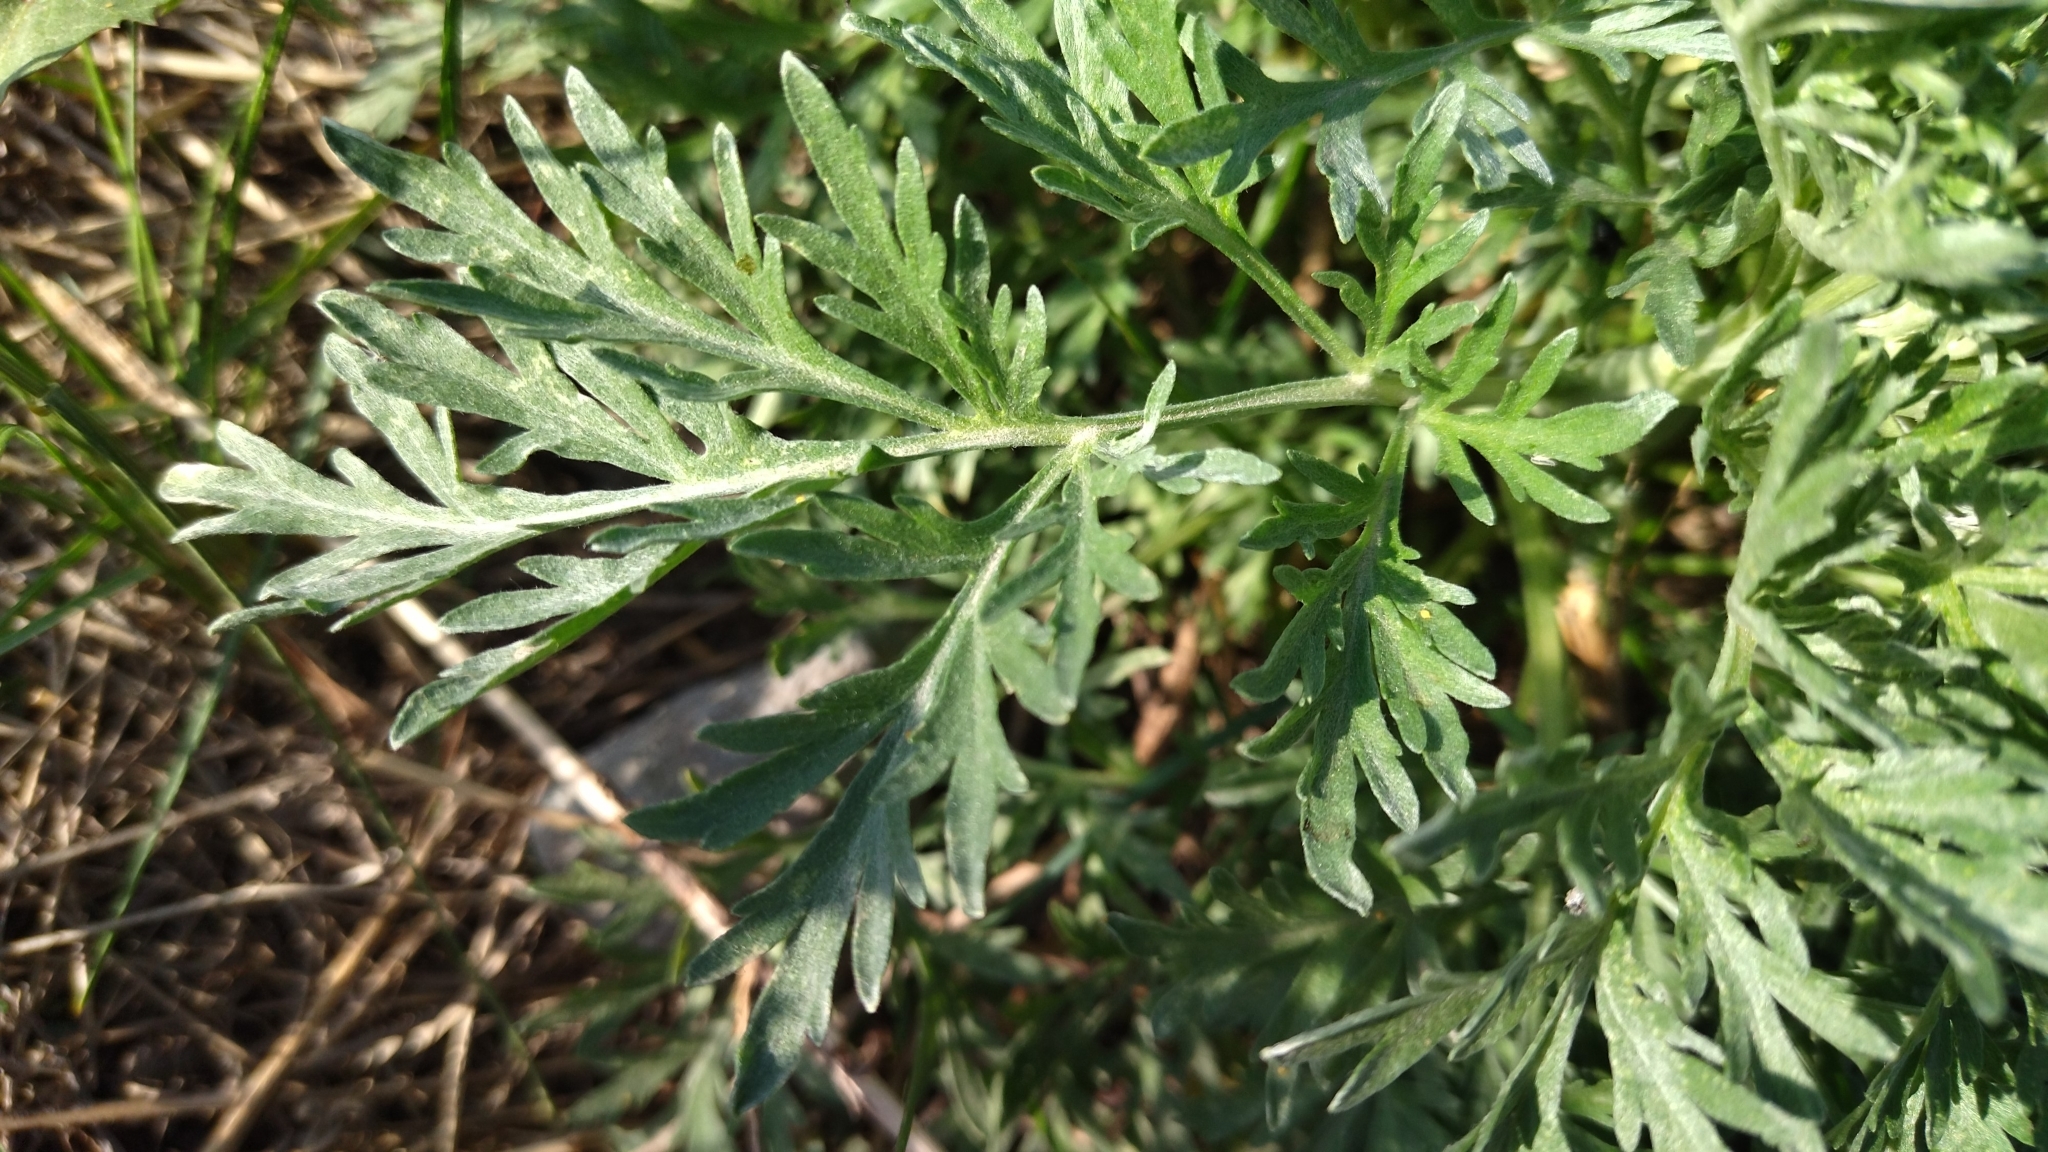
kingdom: Plantae
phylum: Tracheophyta
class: Magnoliopsida
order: Asterales
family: Asteraceae
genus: Artemisia
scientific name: Artemisia absinthium
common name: Wormwood
